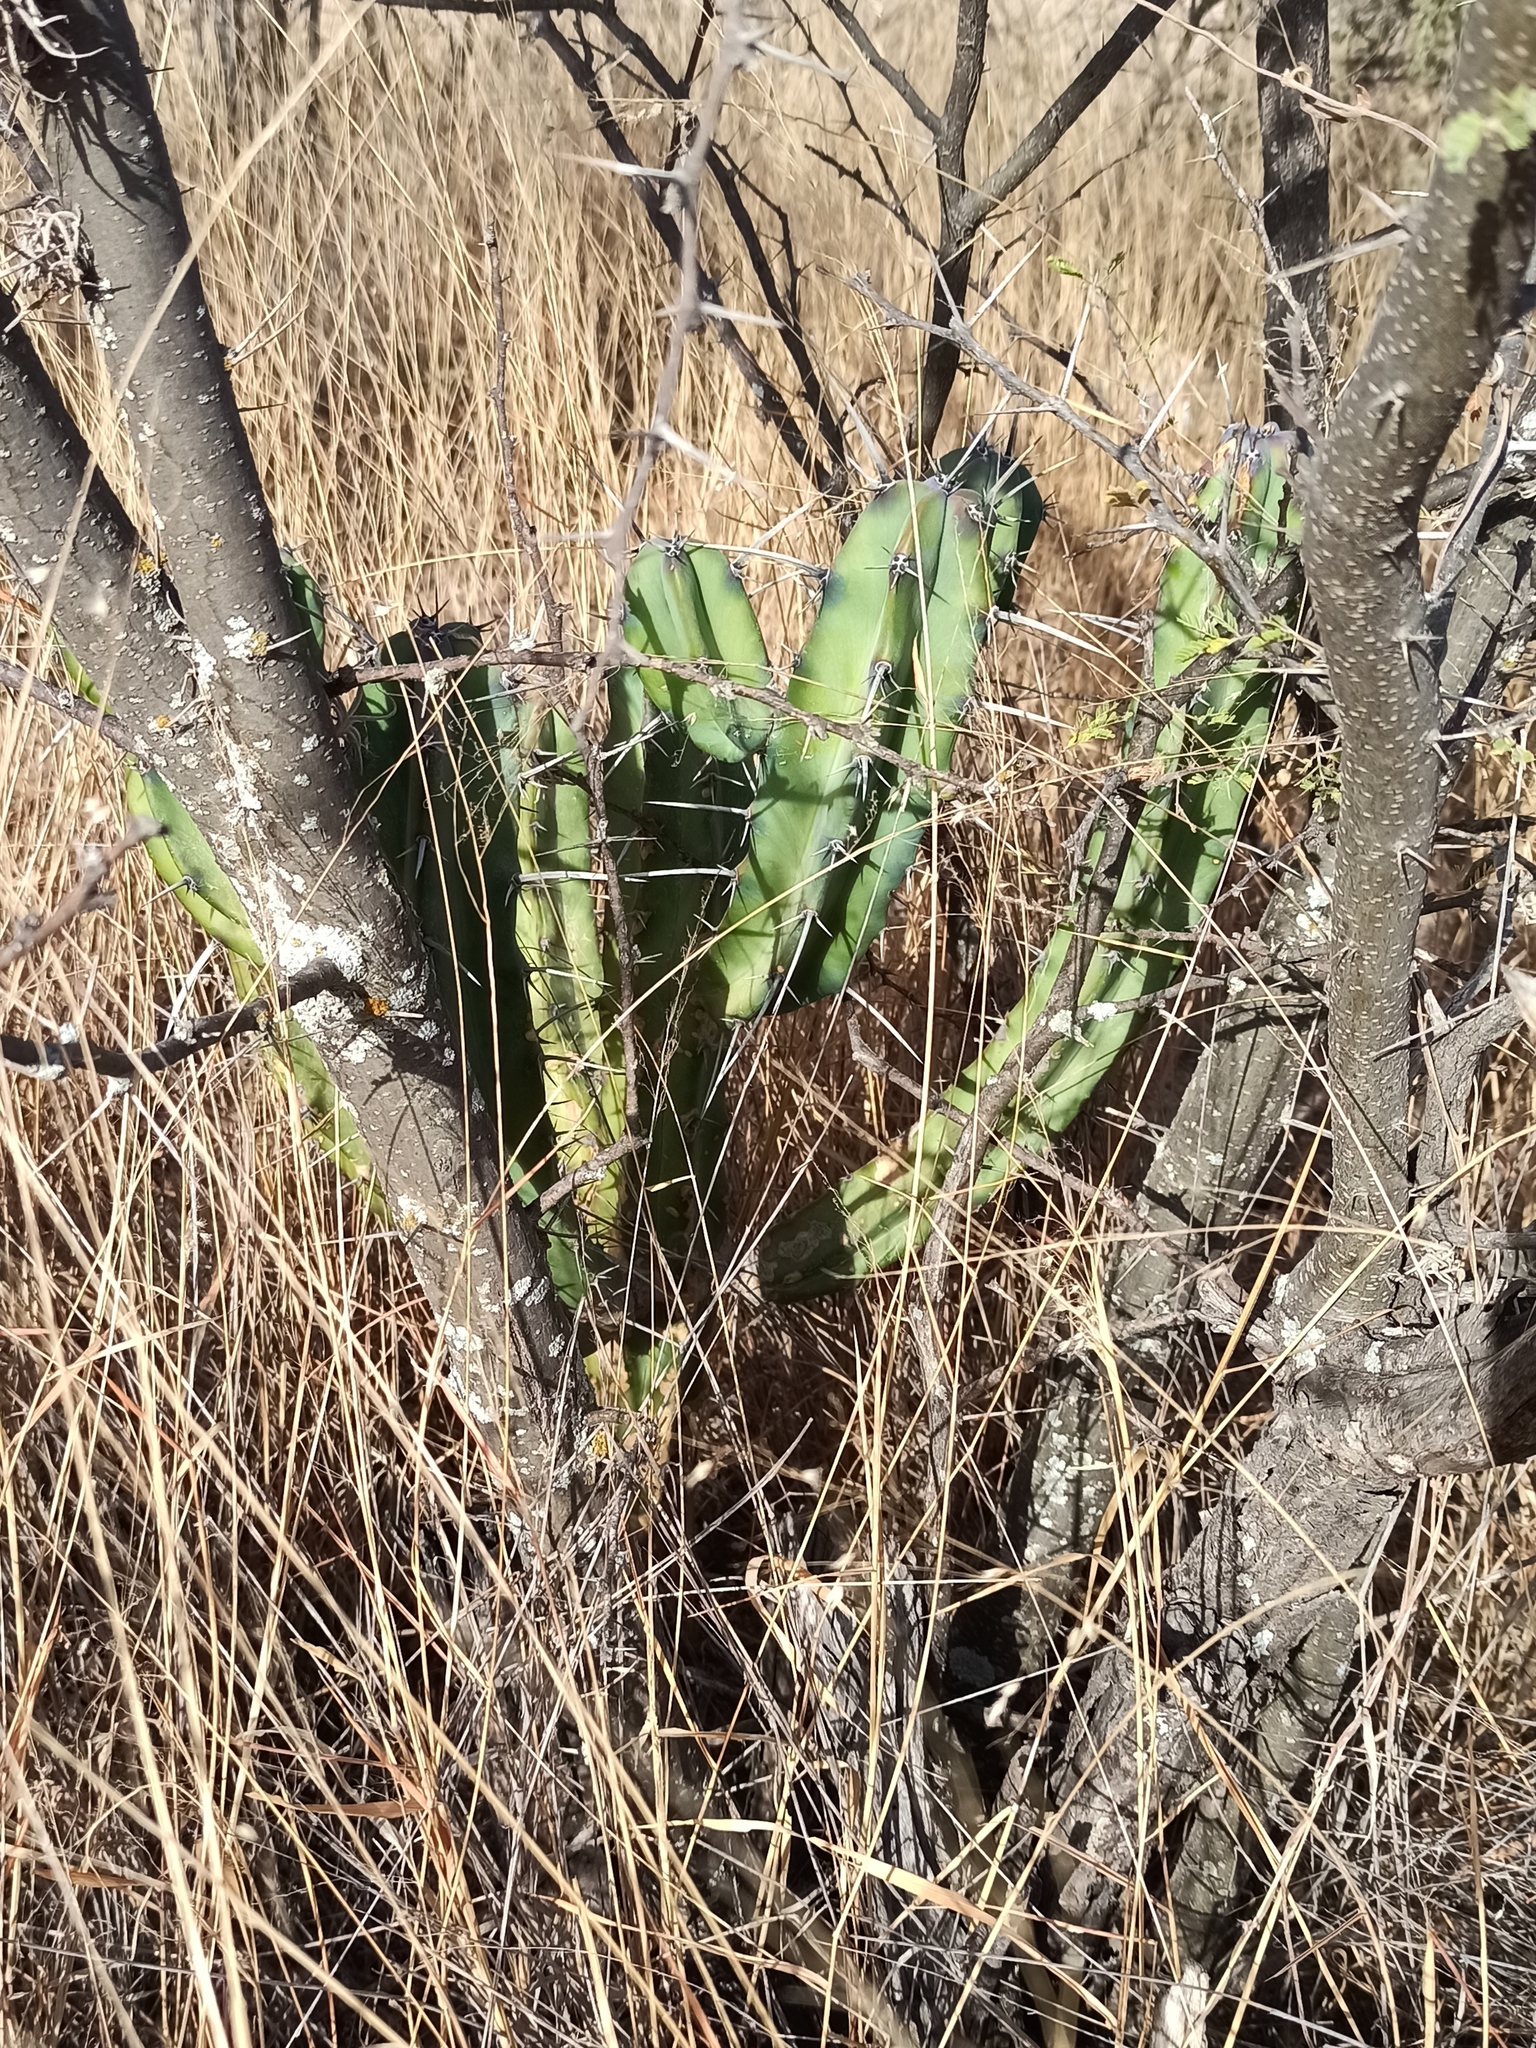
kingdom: Plantae
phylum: Tracheophyta
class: Magnoliopsida
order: Caryophyllales
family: Cactaceae
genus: Myrtillocactus
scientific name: Myrtillocactus geometrizans
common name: Bilberry cactus
